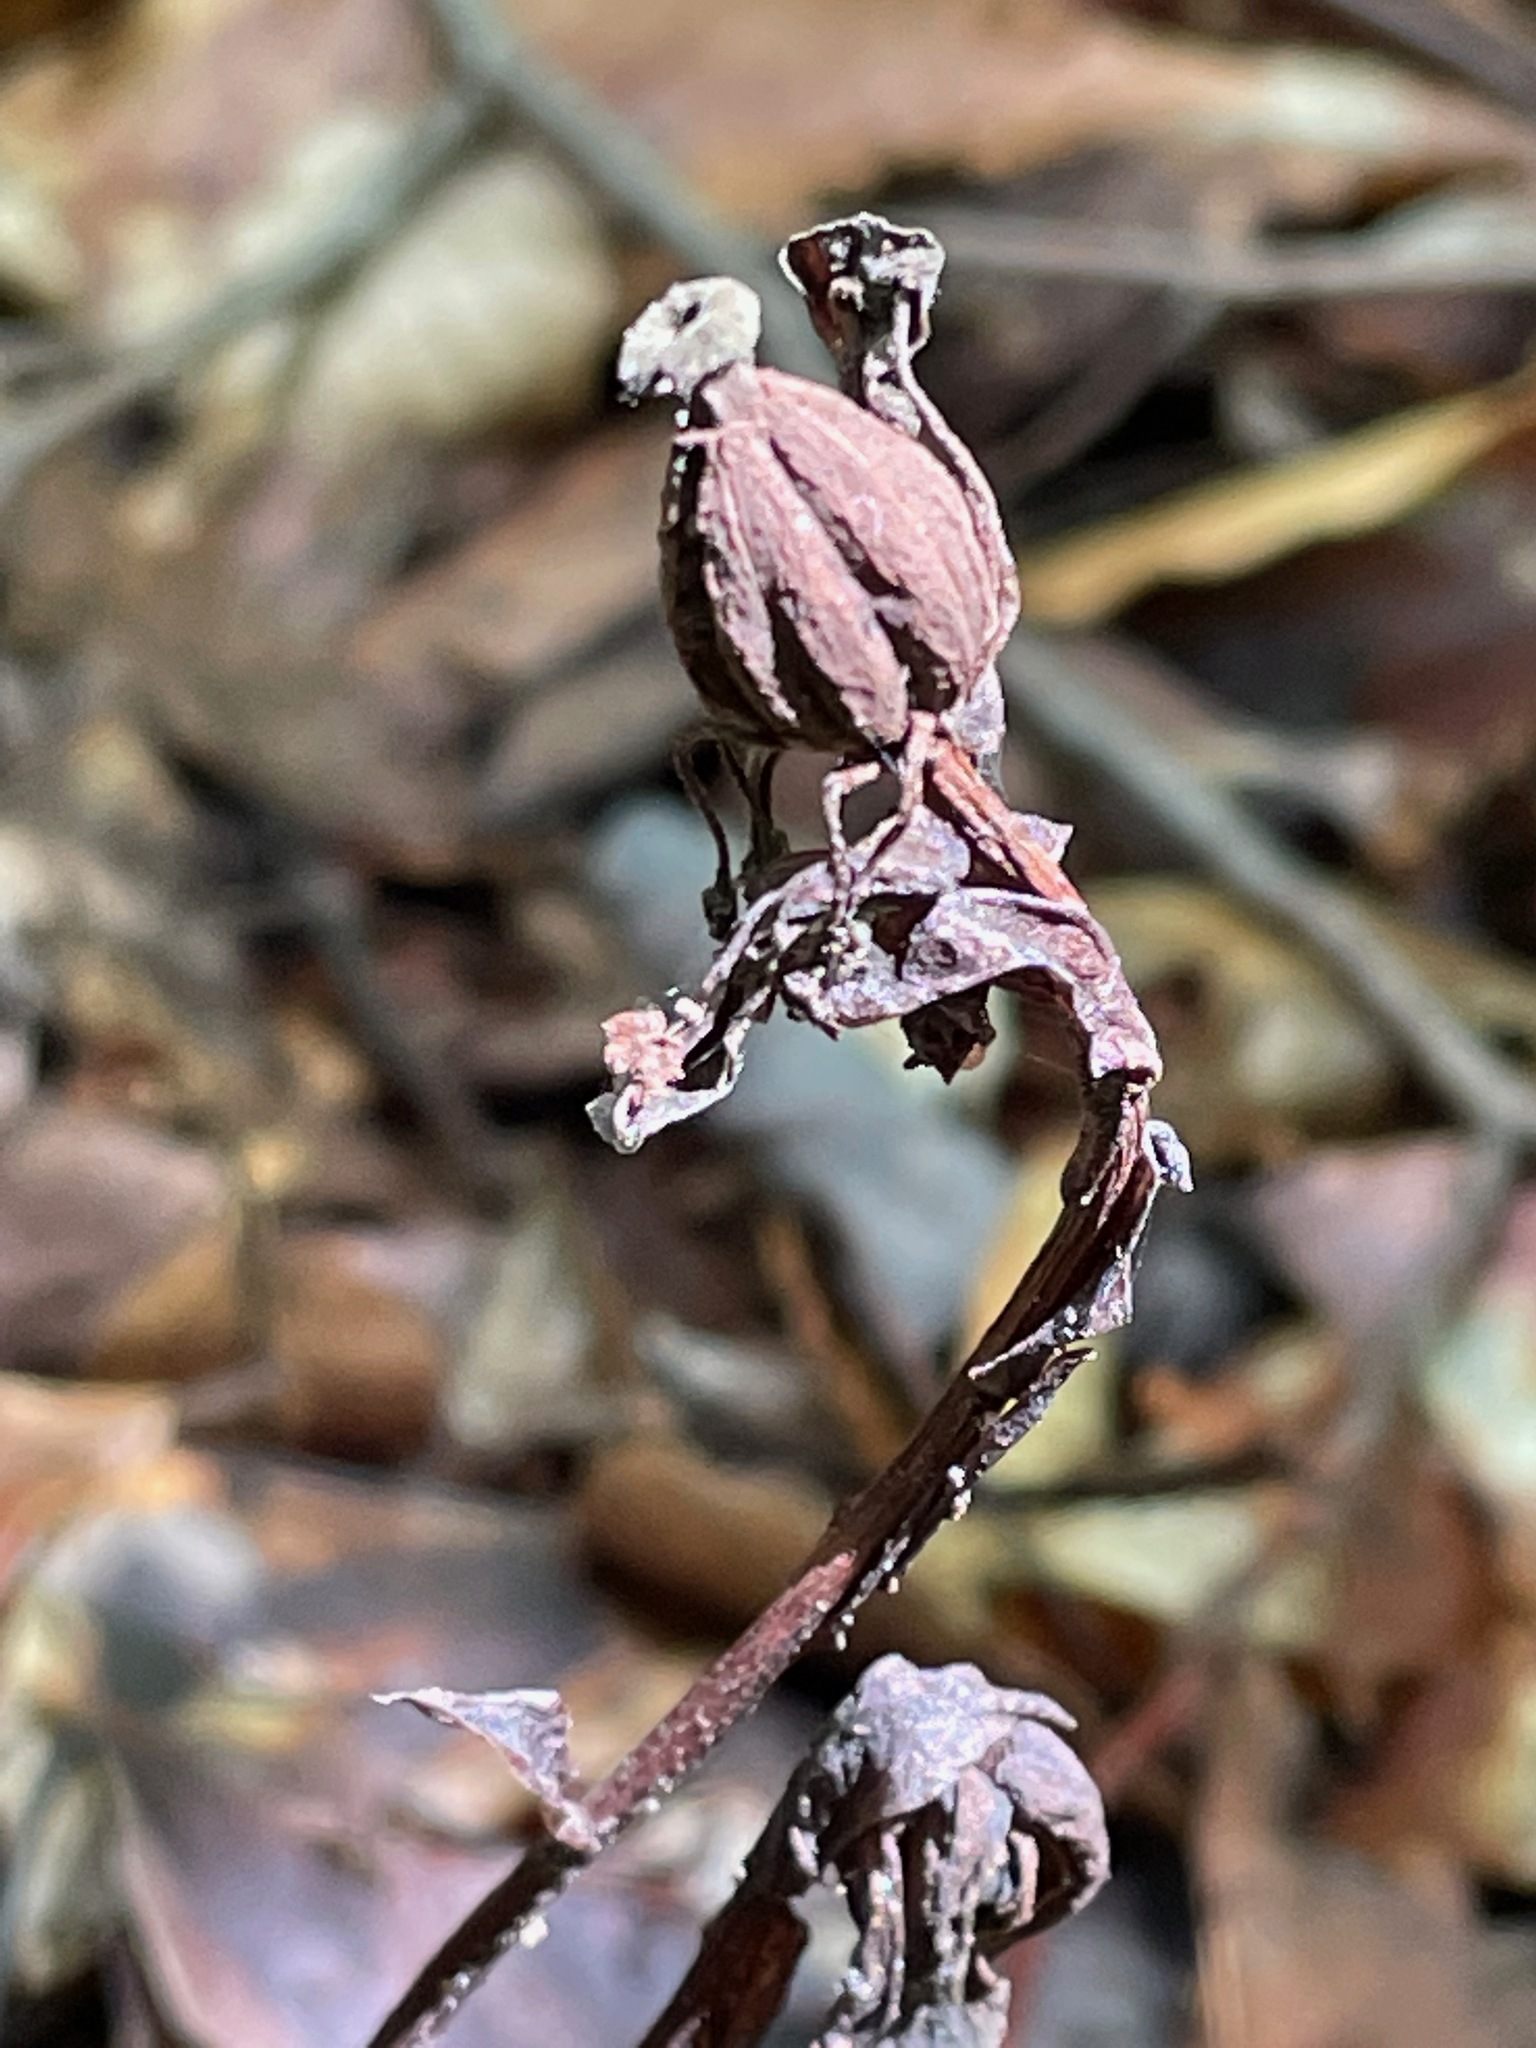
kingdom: Plantae
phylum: Tracheophyta
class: Magnoliopsida
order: Ericales
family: Ericaceae
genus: Monotropa
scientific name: Monotropa uniflora
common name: Convulsion root
